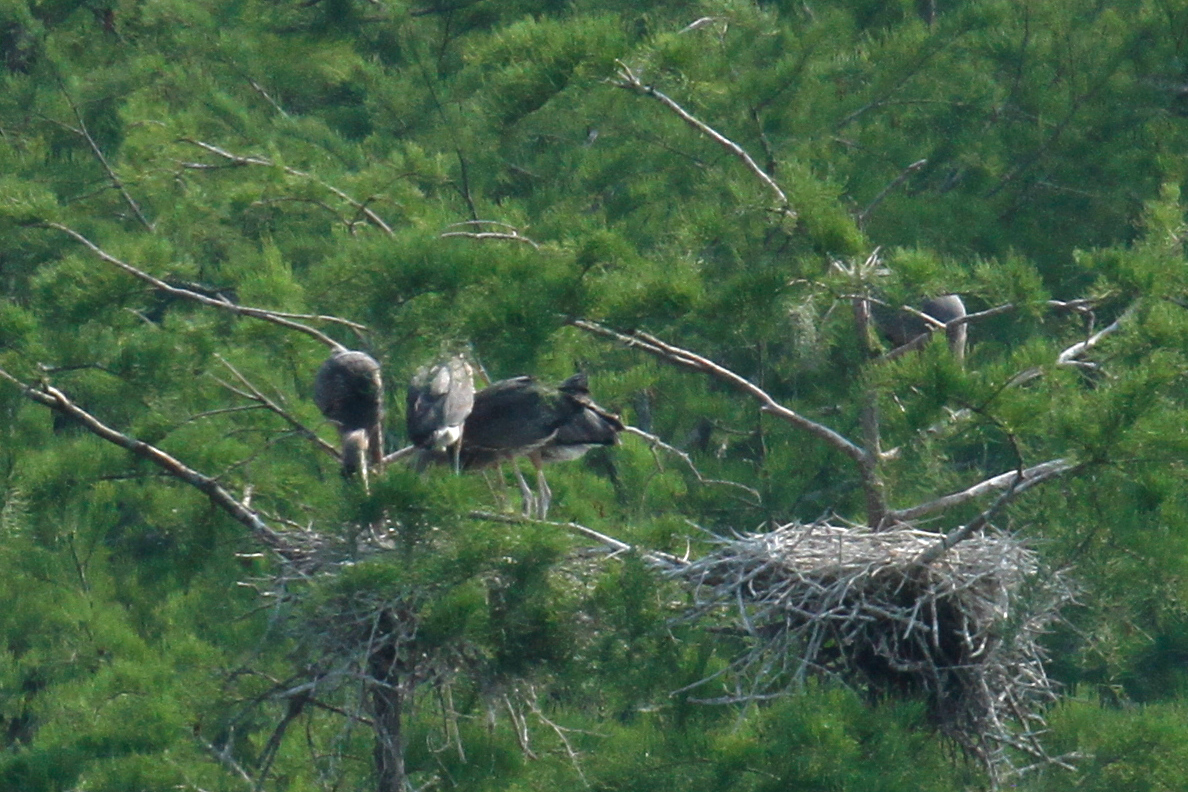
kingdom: Animalia
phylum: Chordata
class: Aves
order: Pelecaniformes
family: Ardeidae
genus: Ardea
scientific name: Ardea herodias
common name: Great blue heron
